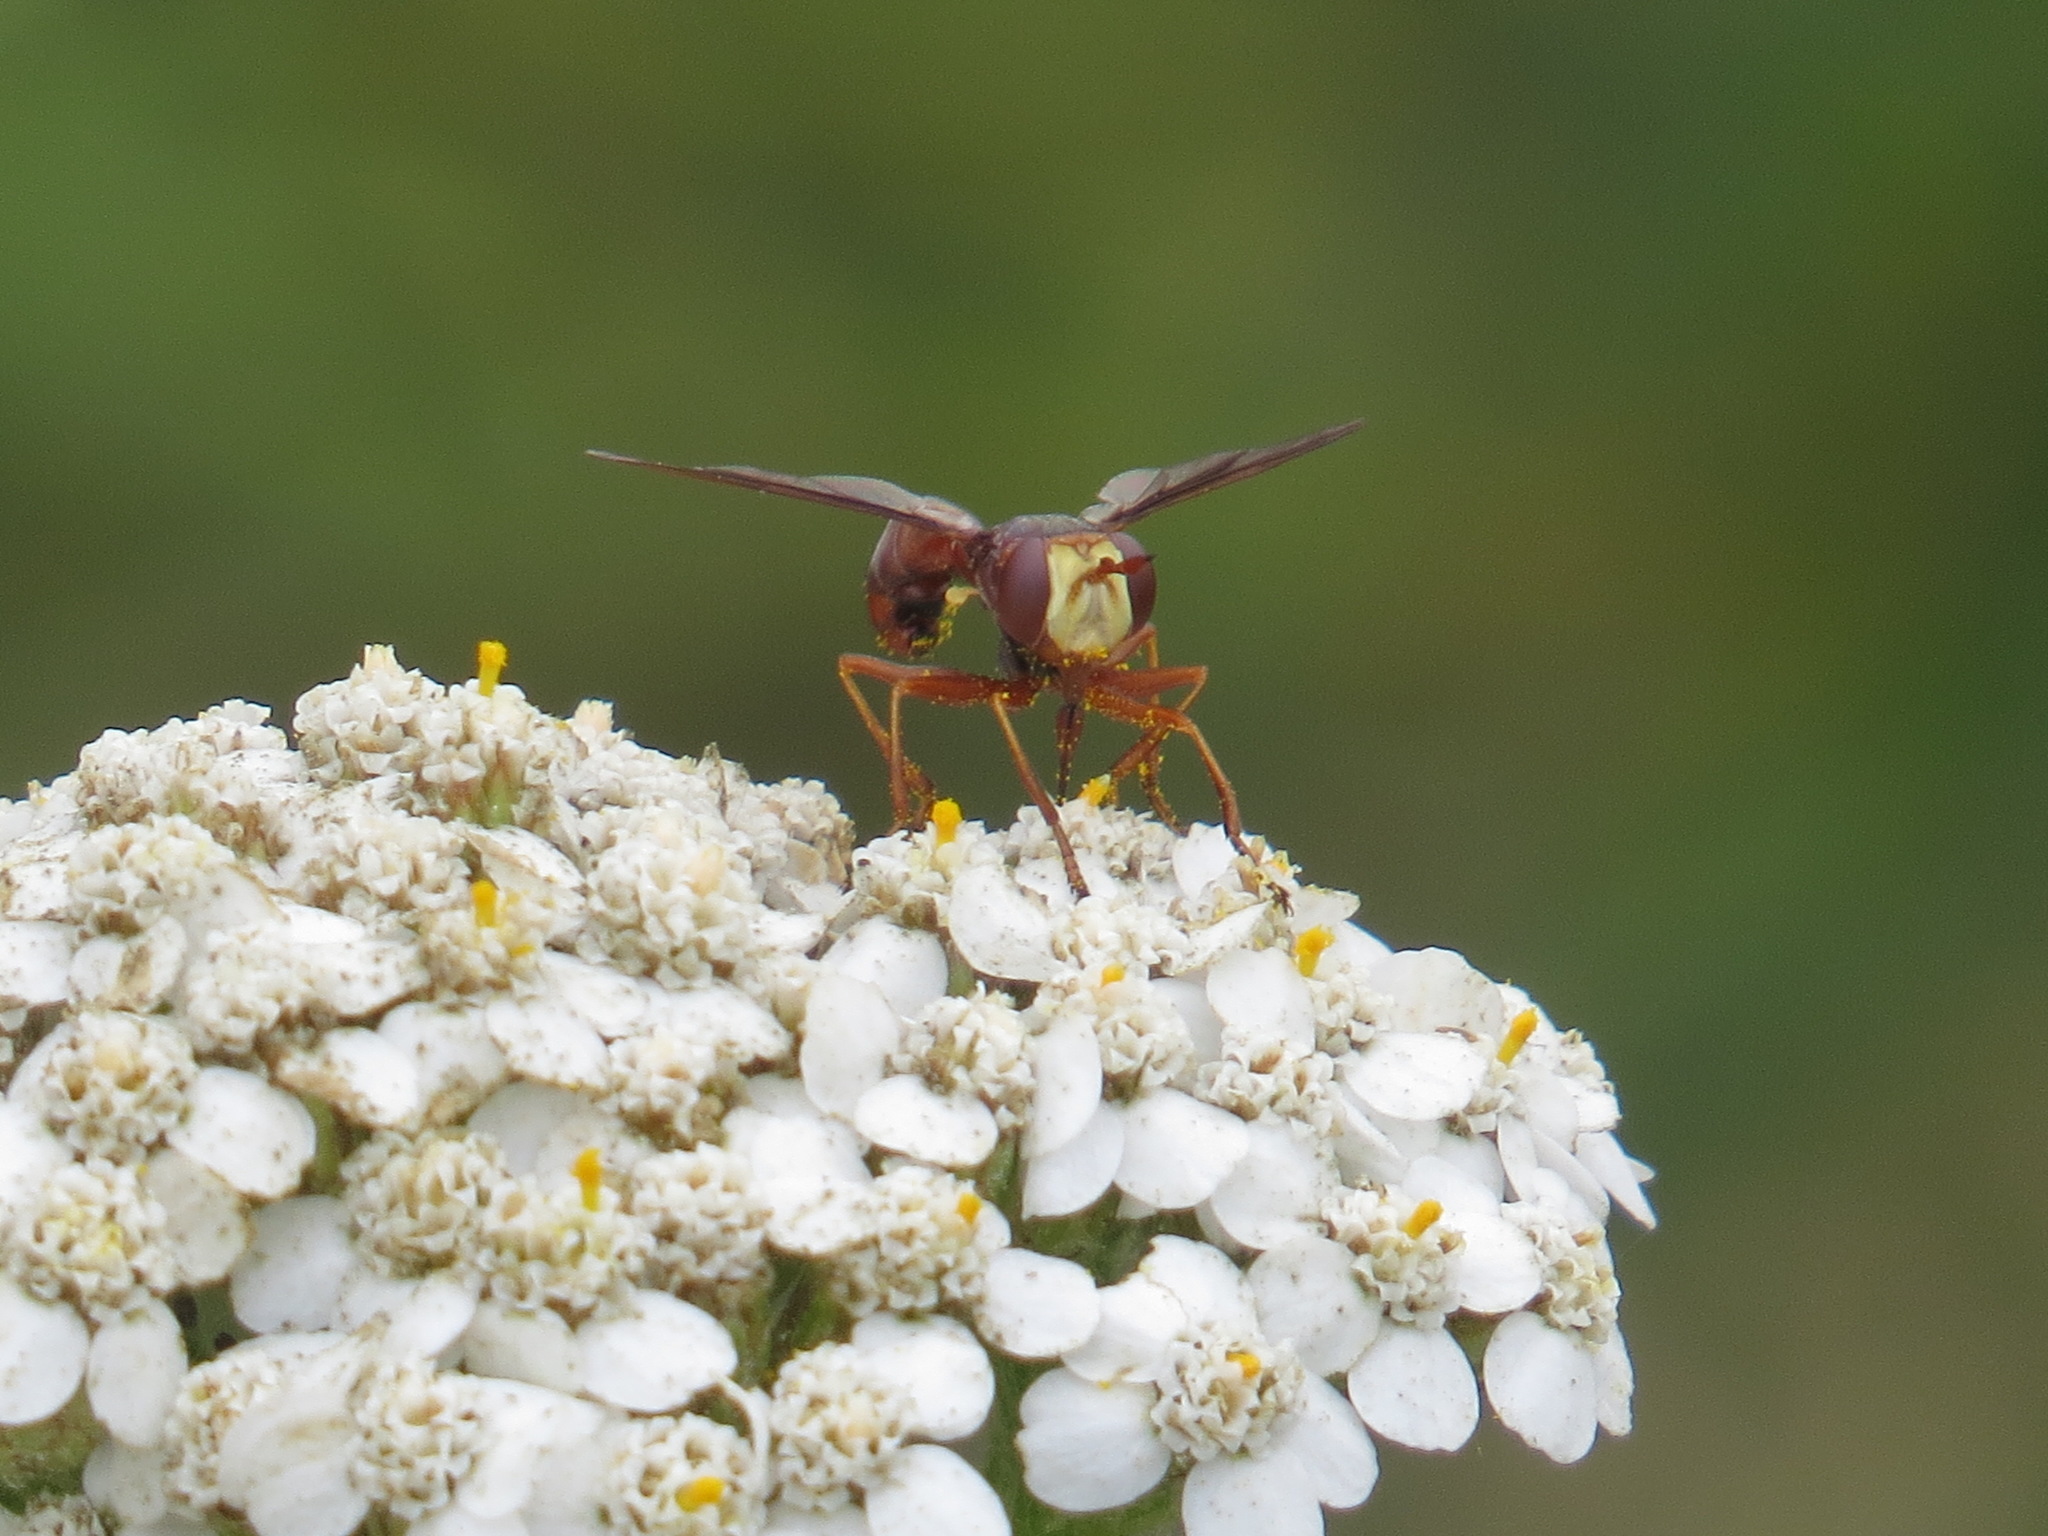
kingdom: Animalia
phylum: Arthropoda
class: Insecta
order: Diptera
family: Conopidae
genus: Physocephala
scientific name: Physocephala texana
